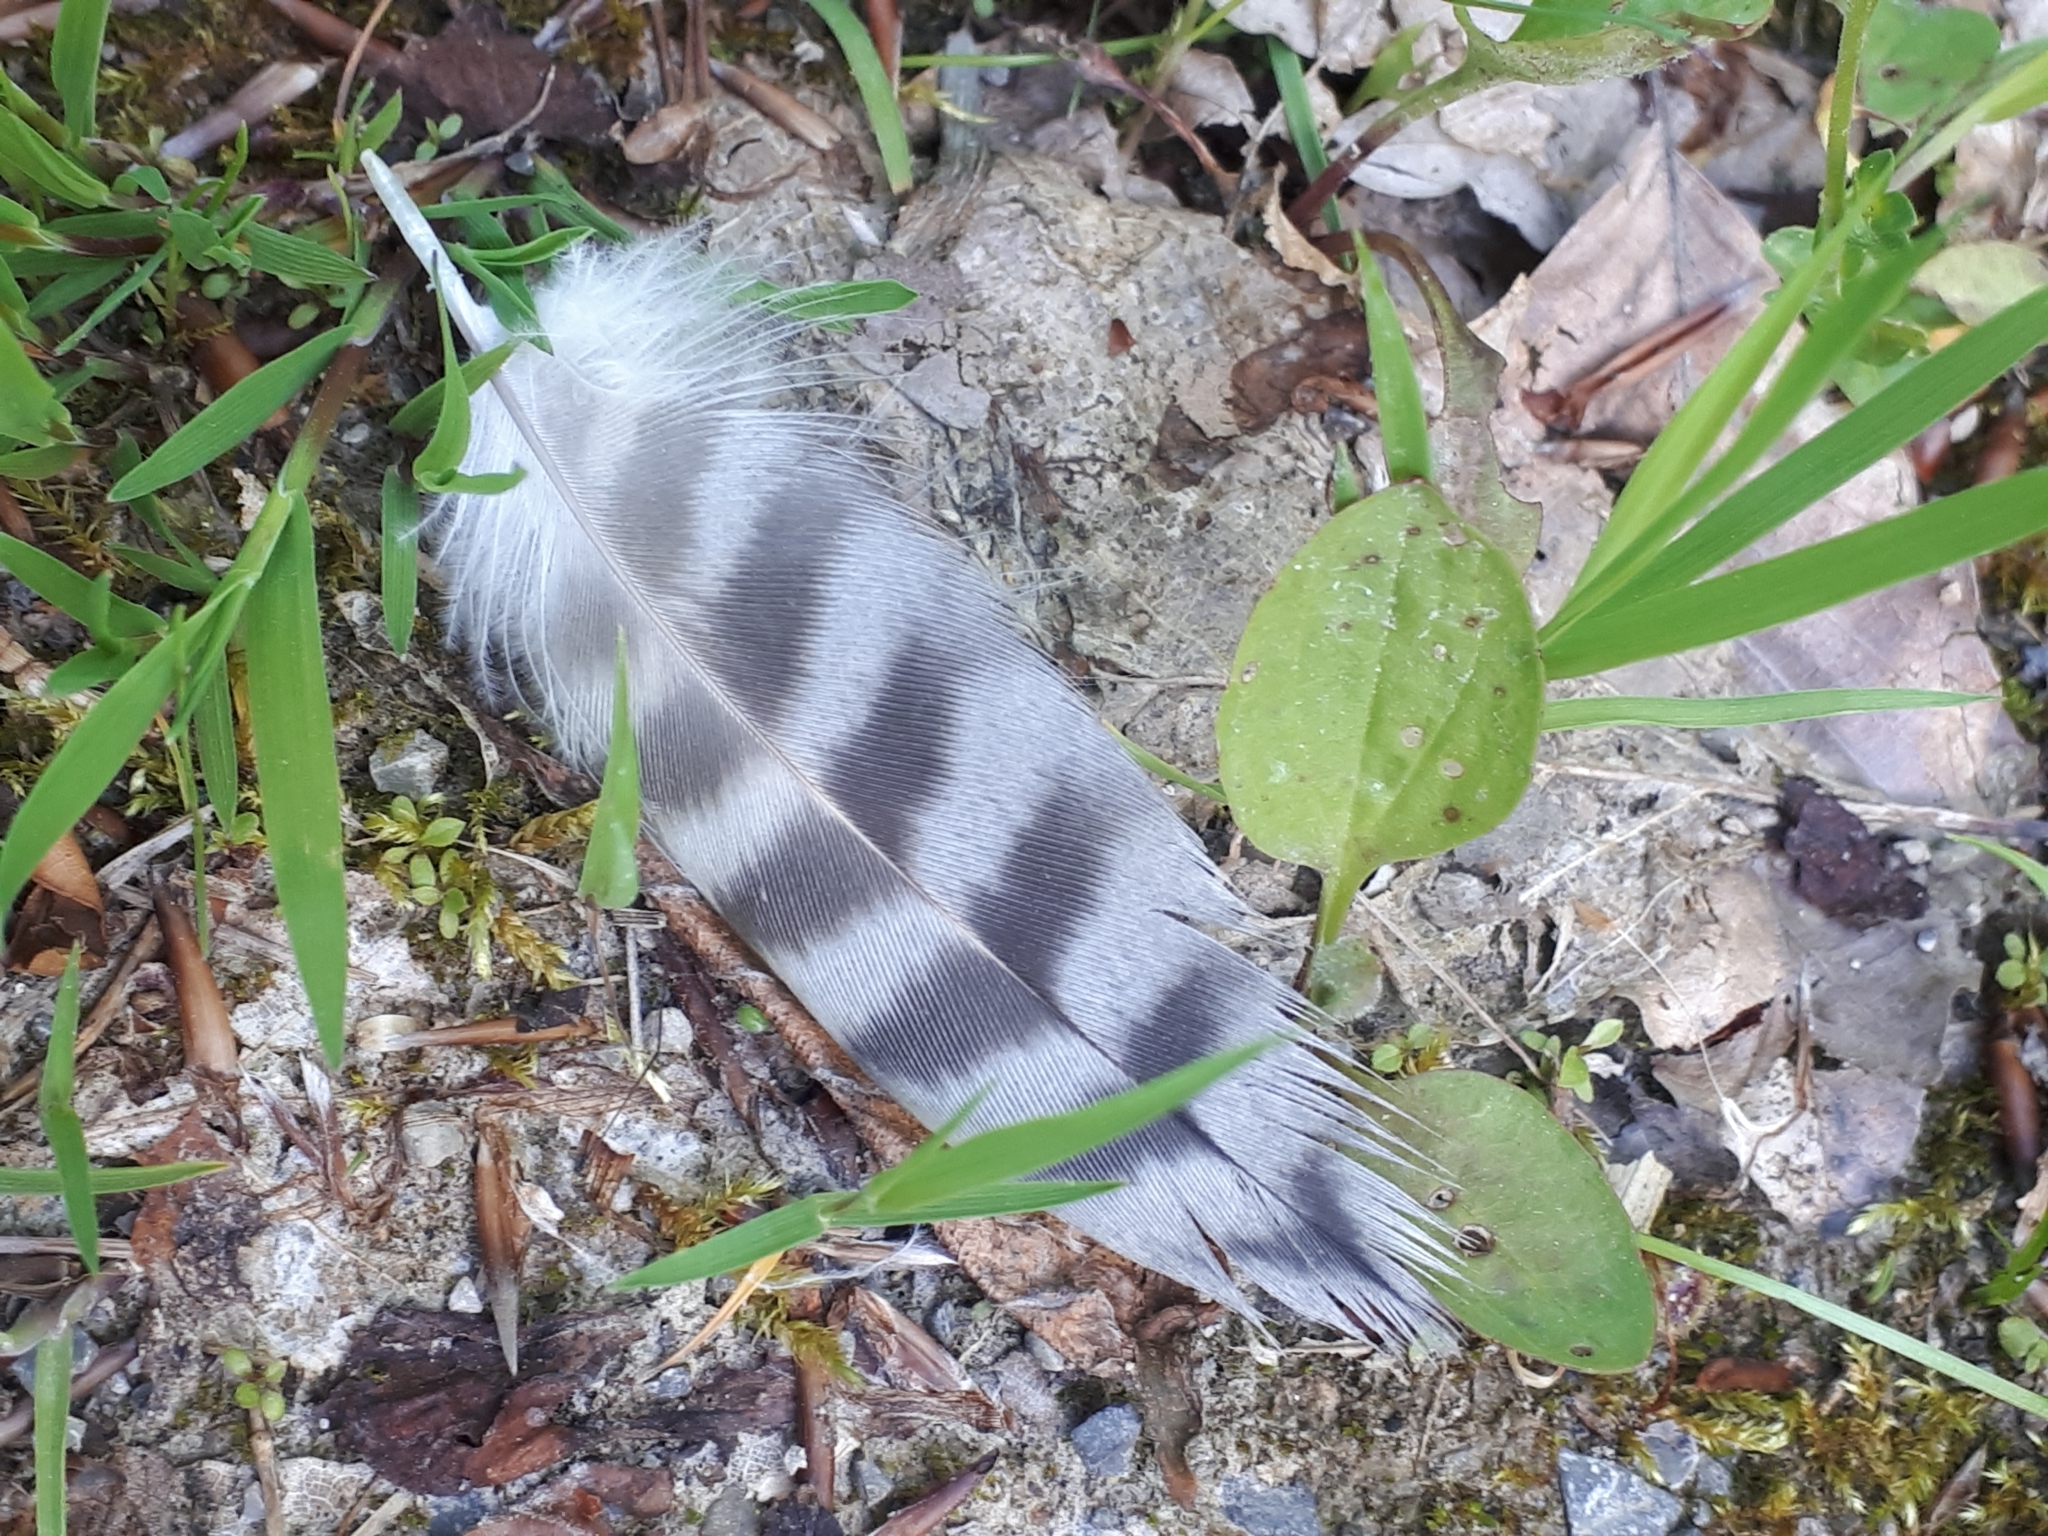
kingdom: Animalia
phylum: Chordata
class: Aves
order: Falconiformes
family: Falconidae
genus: Falco
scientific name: Falco peregrinus
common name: Peregrine falcon
